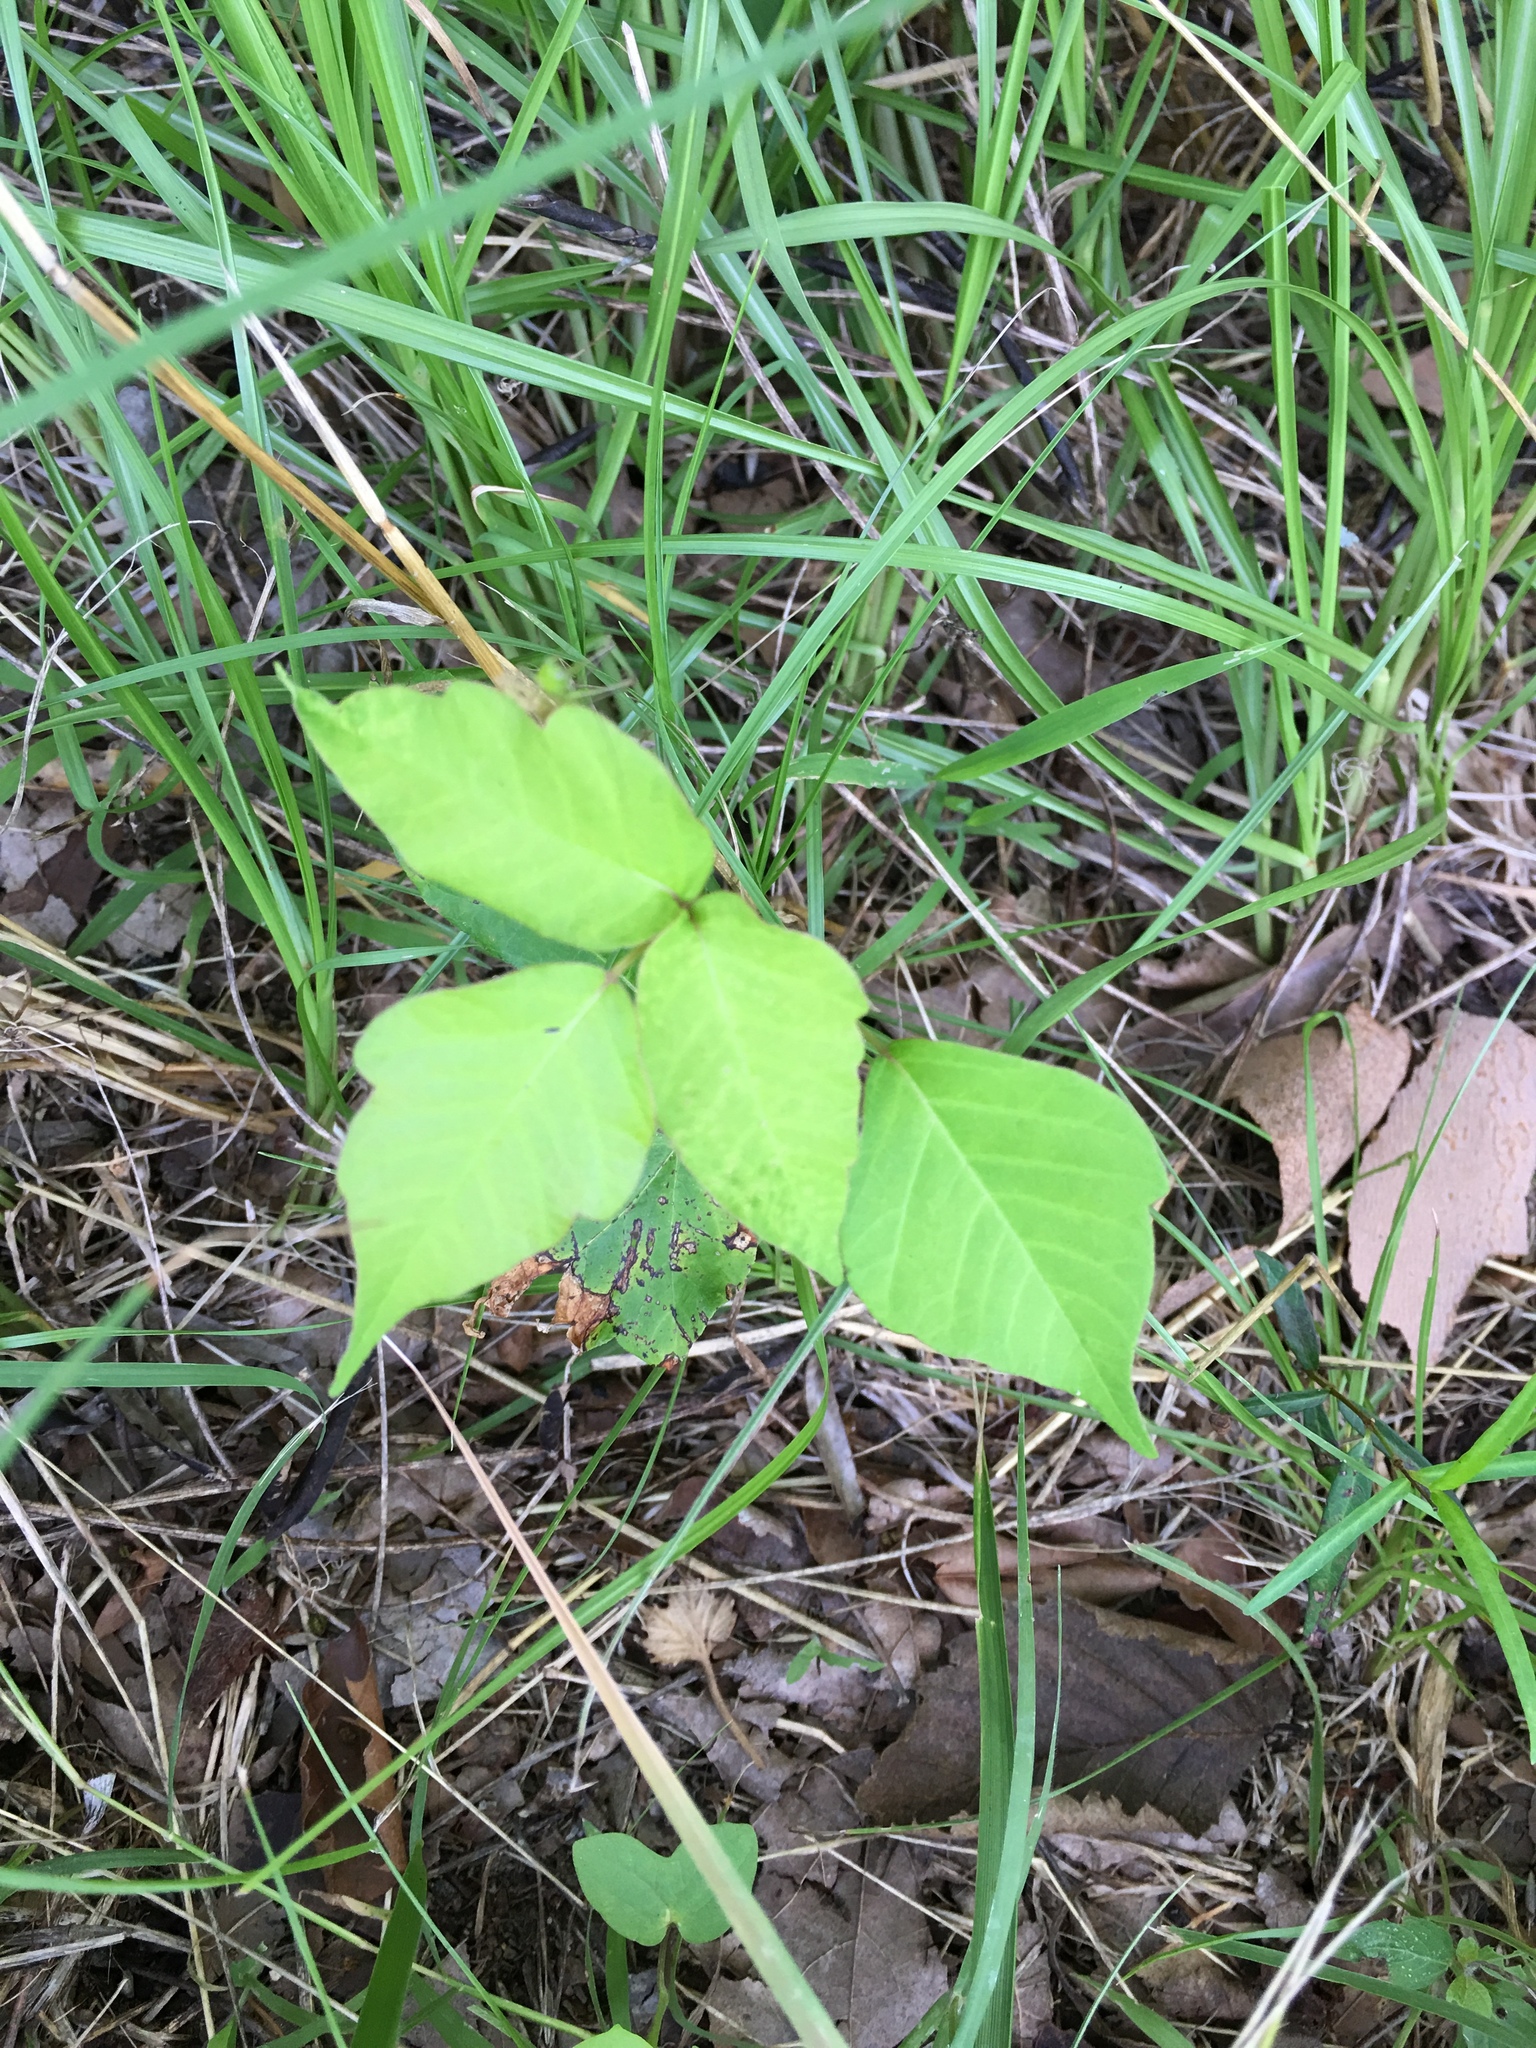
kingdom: Plantae
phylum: Tracheophyta
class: Magnoliopsida
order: Sapindales
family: Anacardiaceae
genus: Toxicodendron
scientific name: Toxicodendron radicans
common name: Poison ivy
